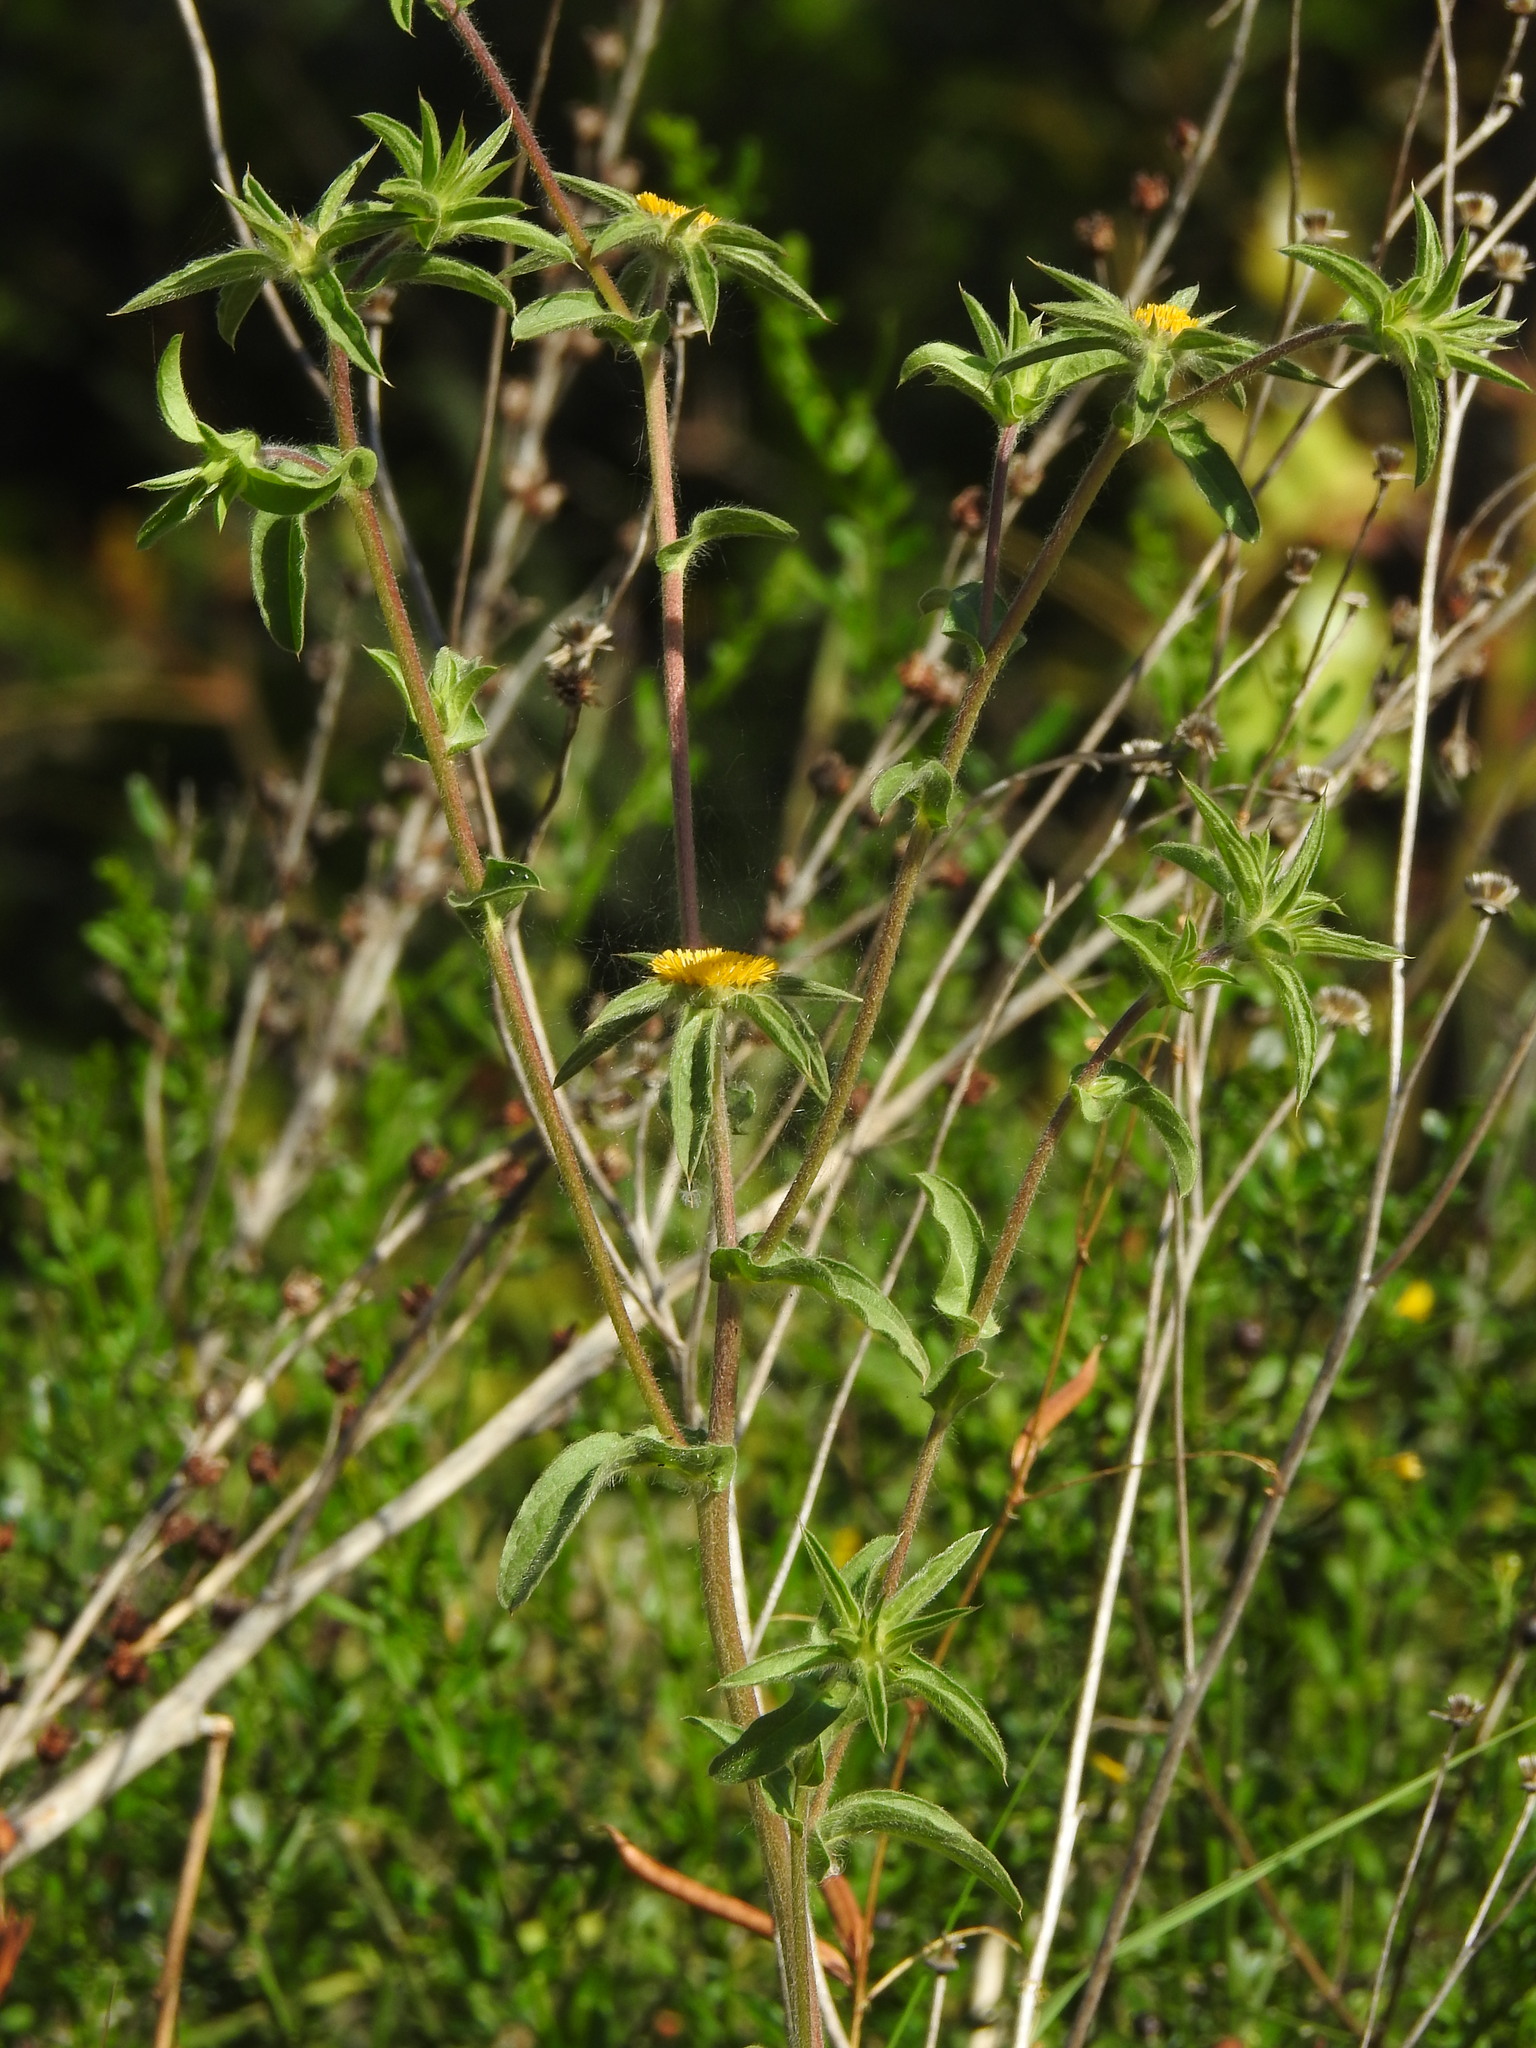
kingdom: Plantae
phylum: Tracheophyta
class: Magnoliopsida
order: Asterales
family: Asteraceae
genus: Pallenis
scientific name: Pallenis spinosa
